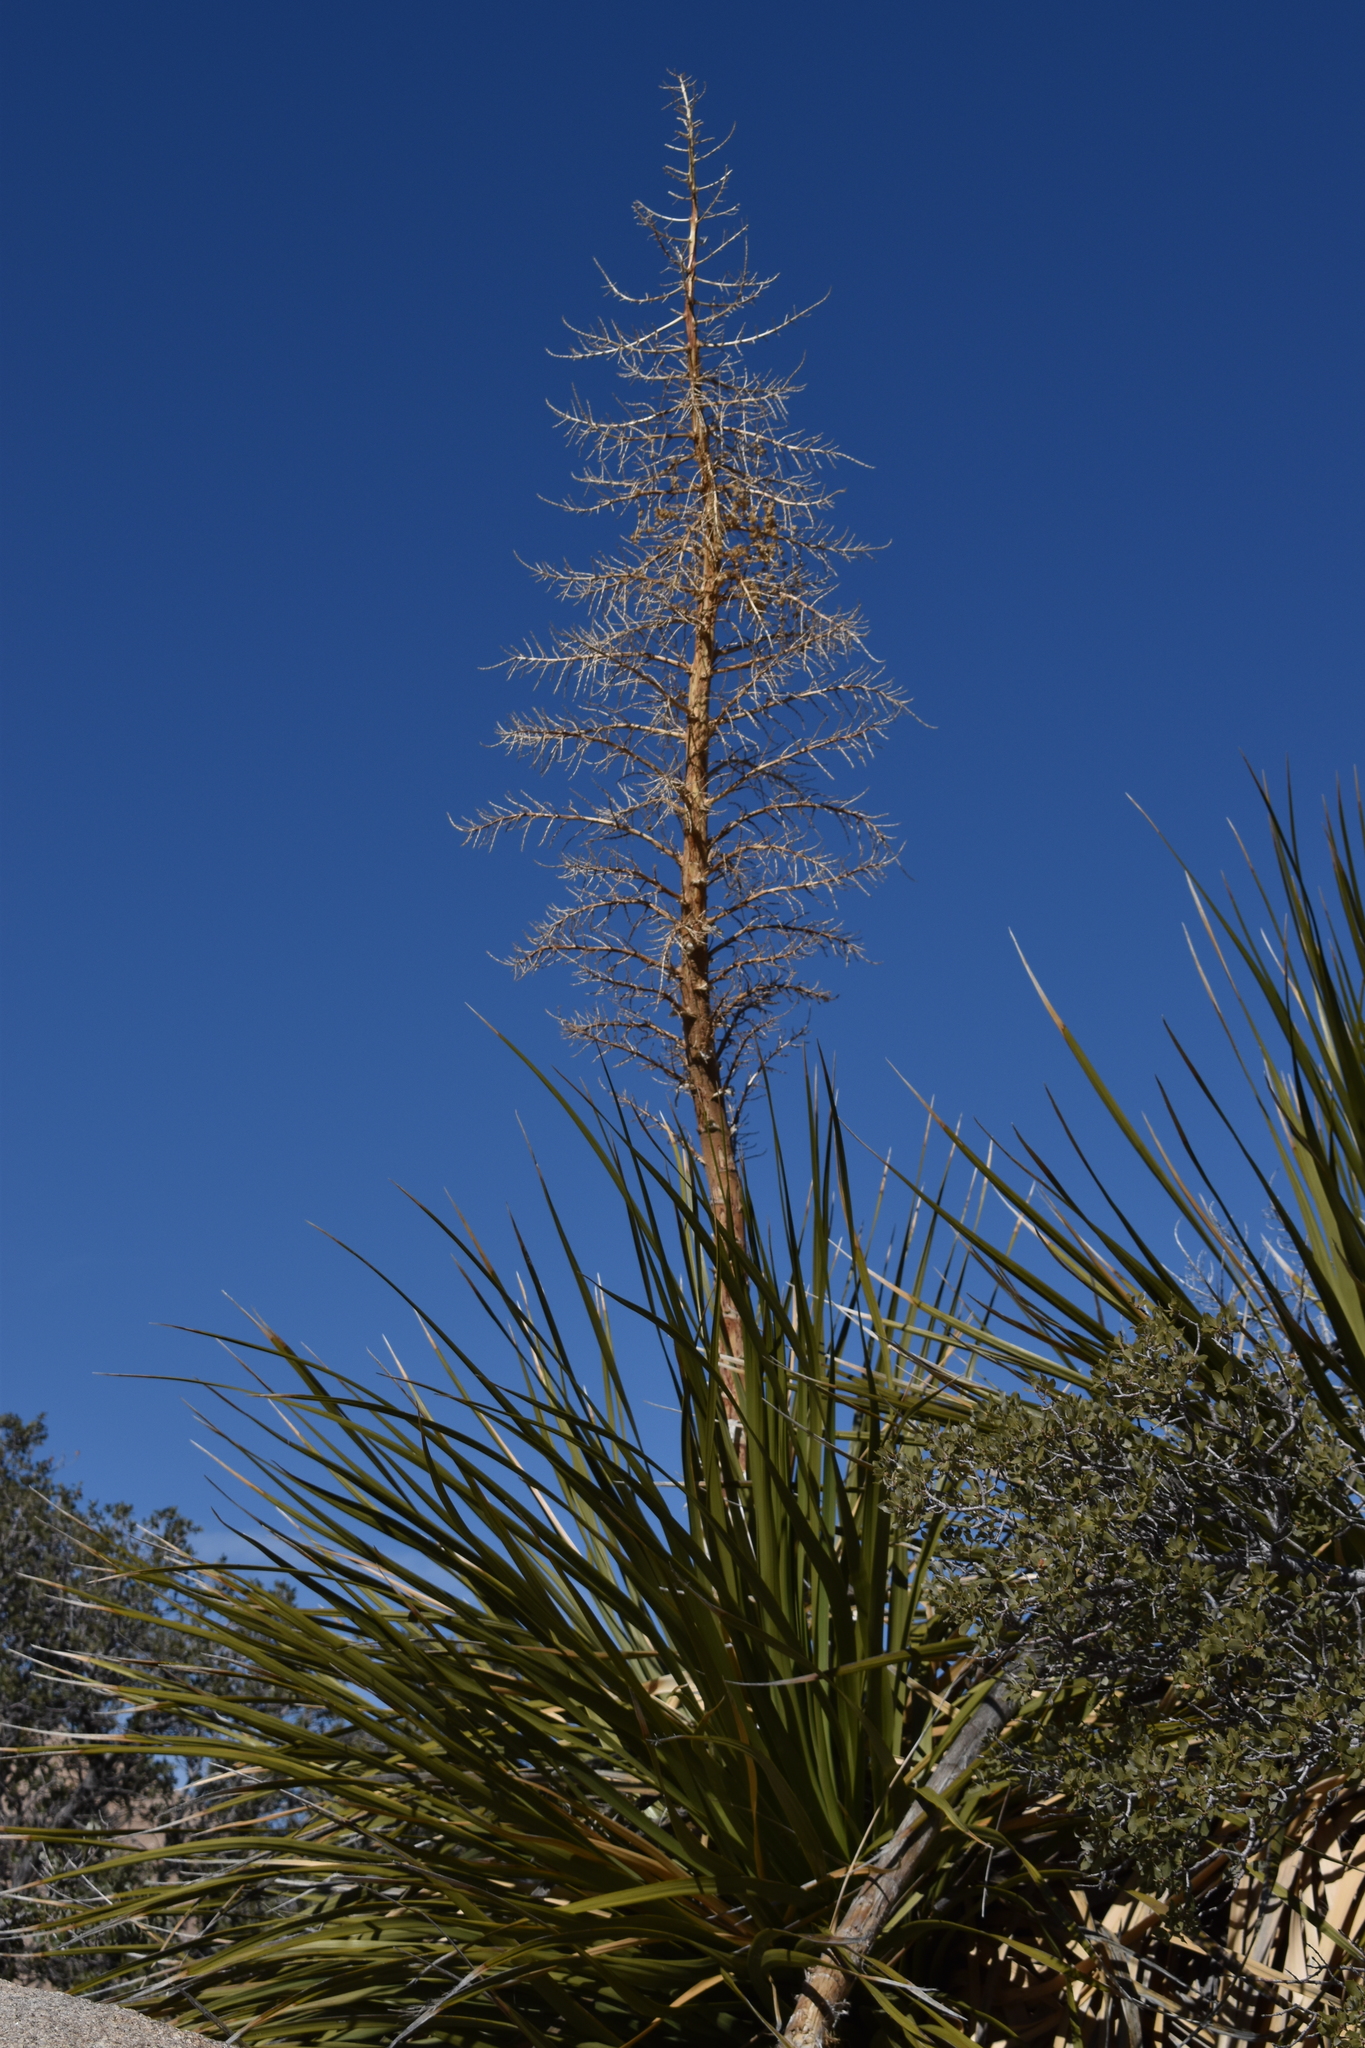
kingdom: Plantae
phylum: Tracheophyta
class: Liliopsida
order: Asparagales
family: Asparagaceae
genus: Nolina
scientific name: Nolina parryi
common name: Parry nolina
